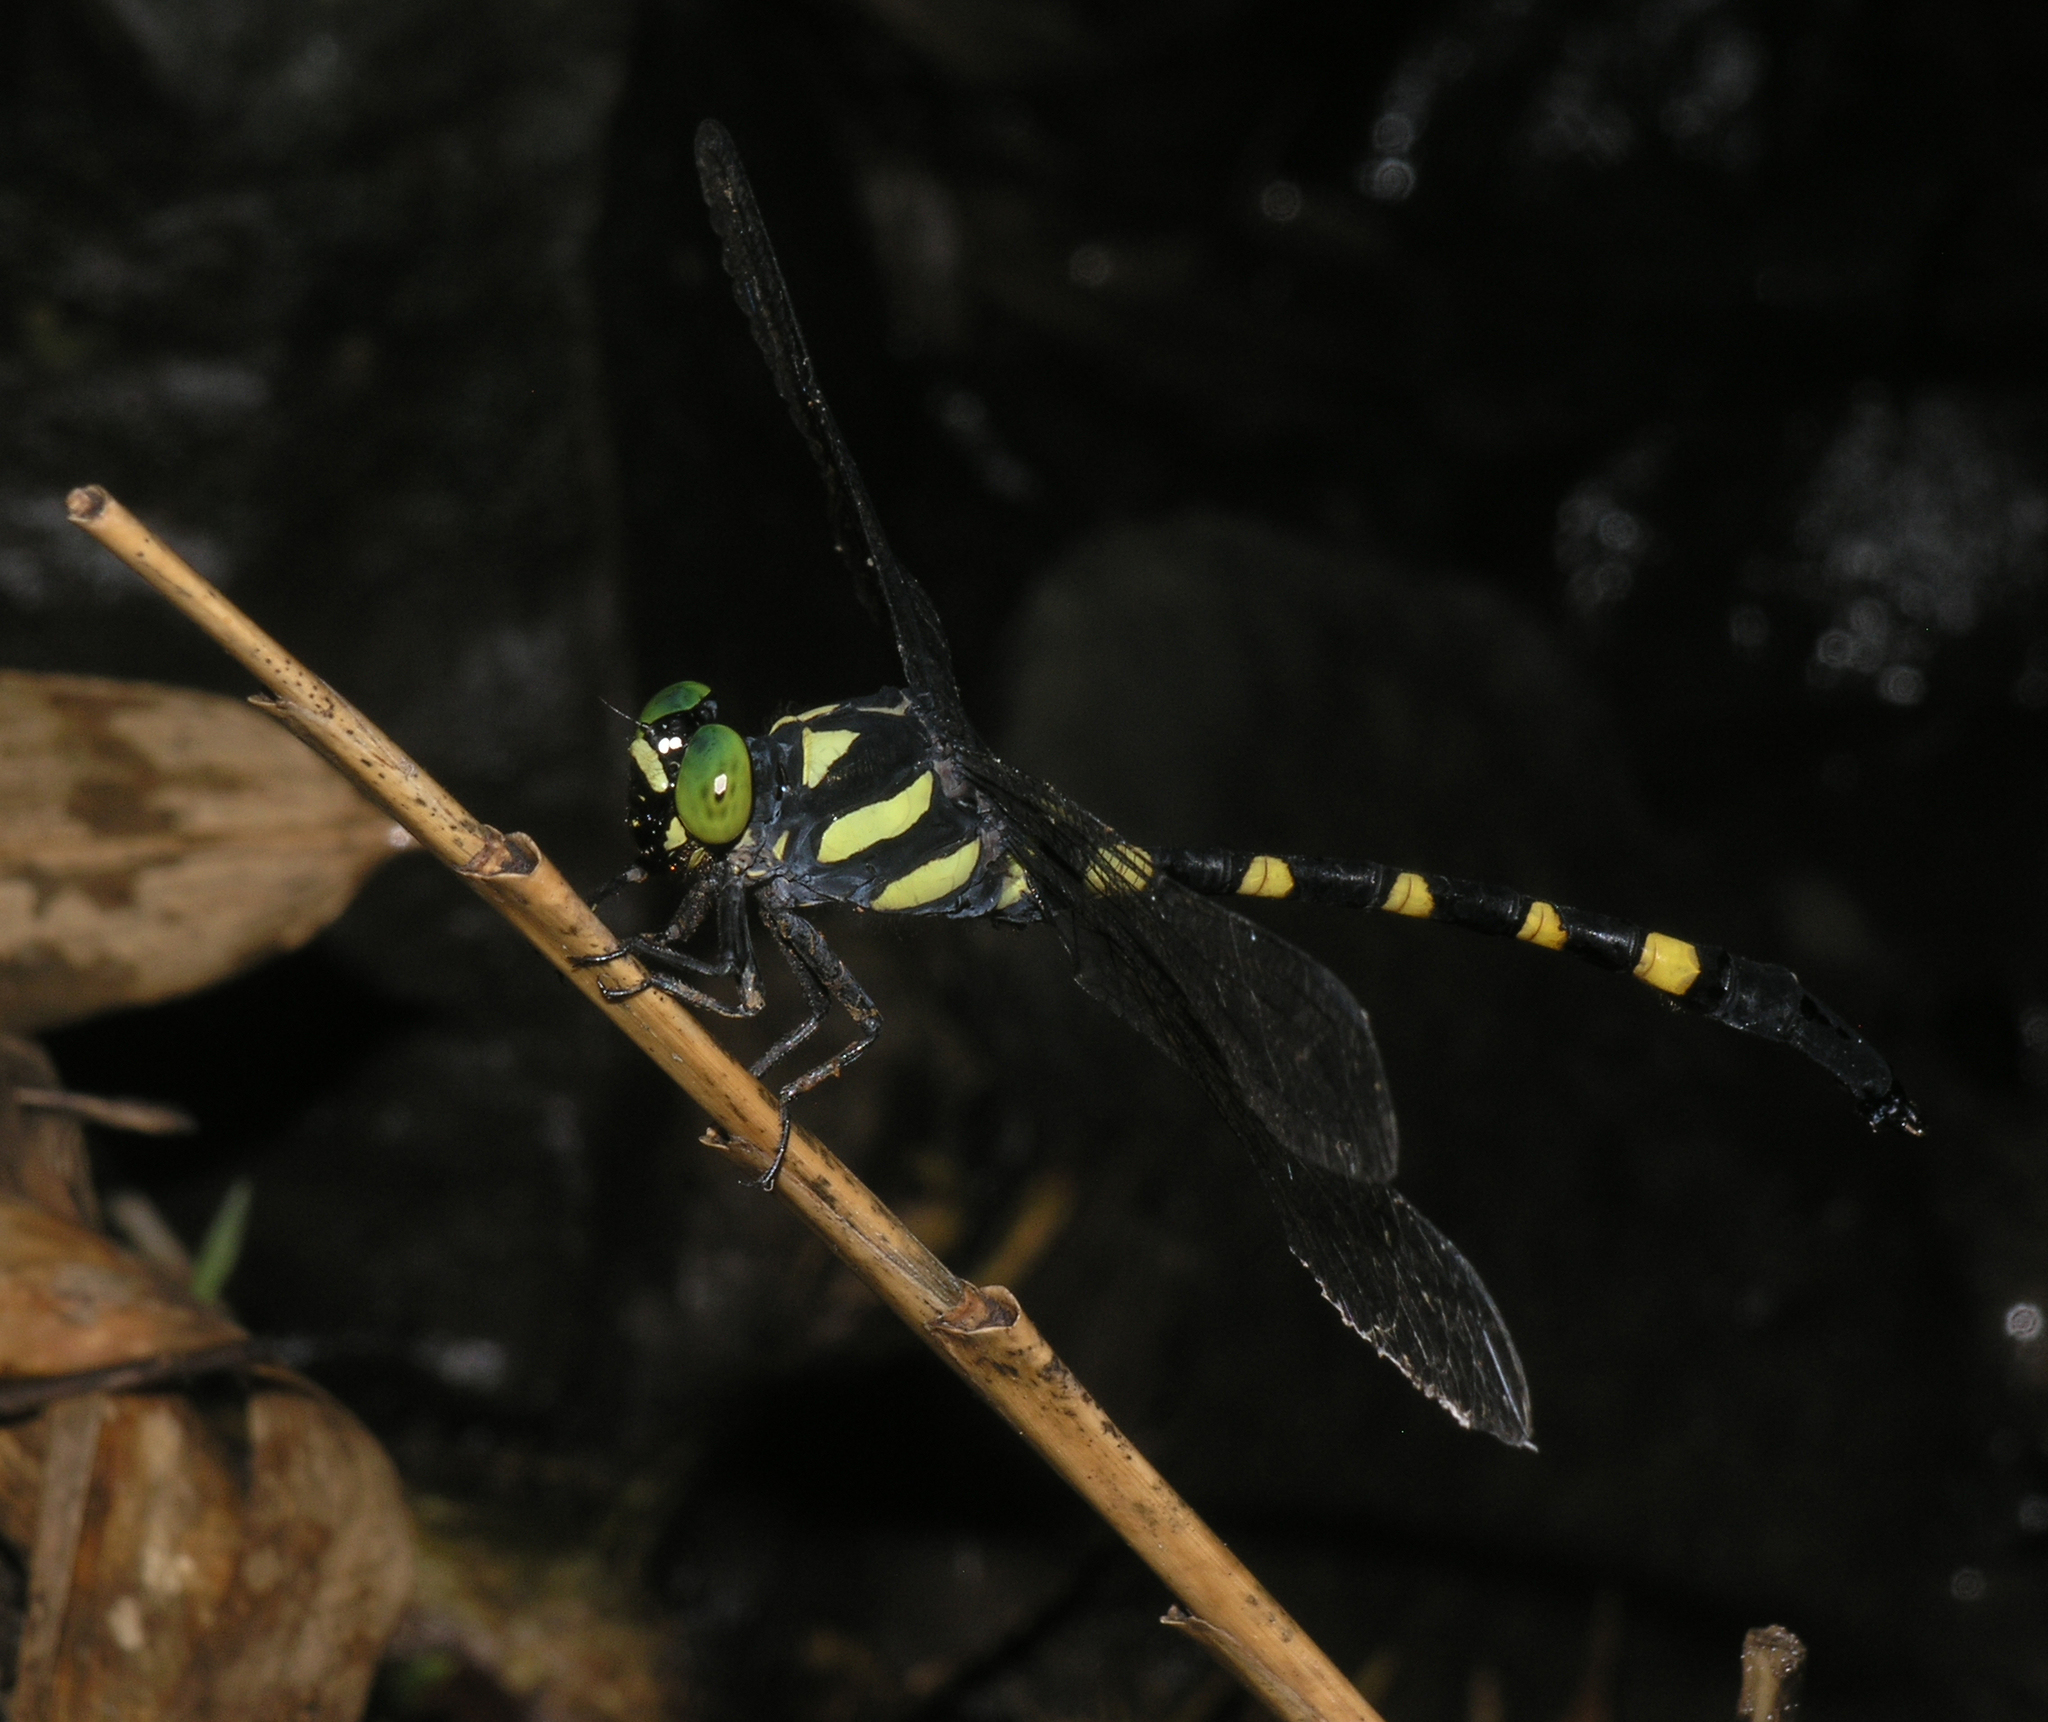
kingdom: Animalia
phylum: Arthropoda
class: Insecta
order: Odonata
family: Gomphidae
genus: Macrogomphus
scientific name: Macrogomphus kerri
